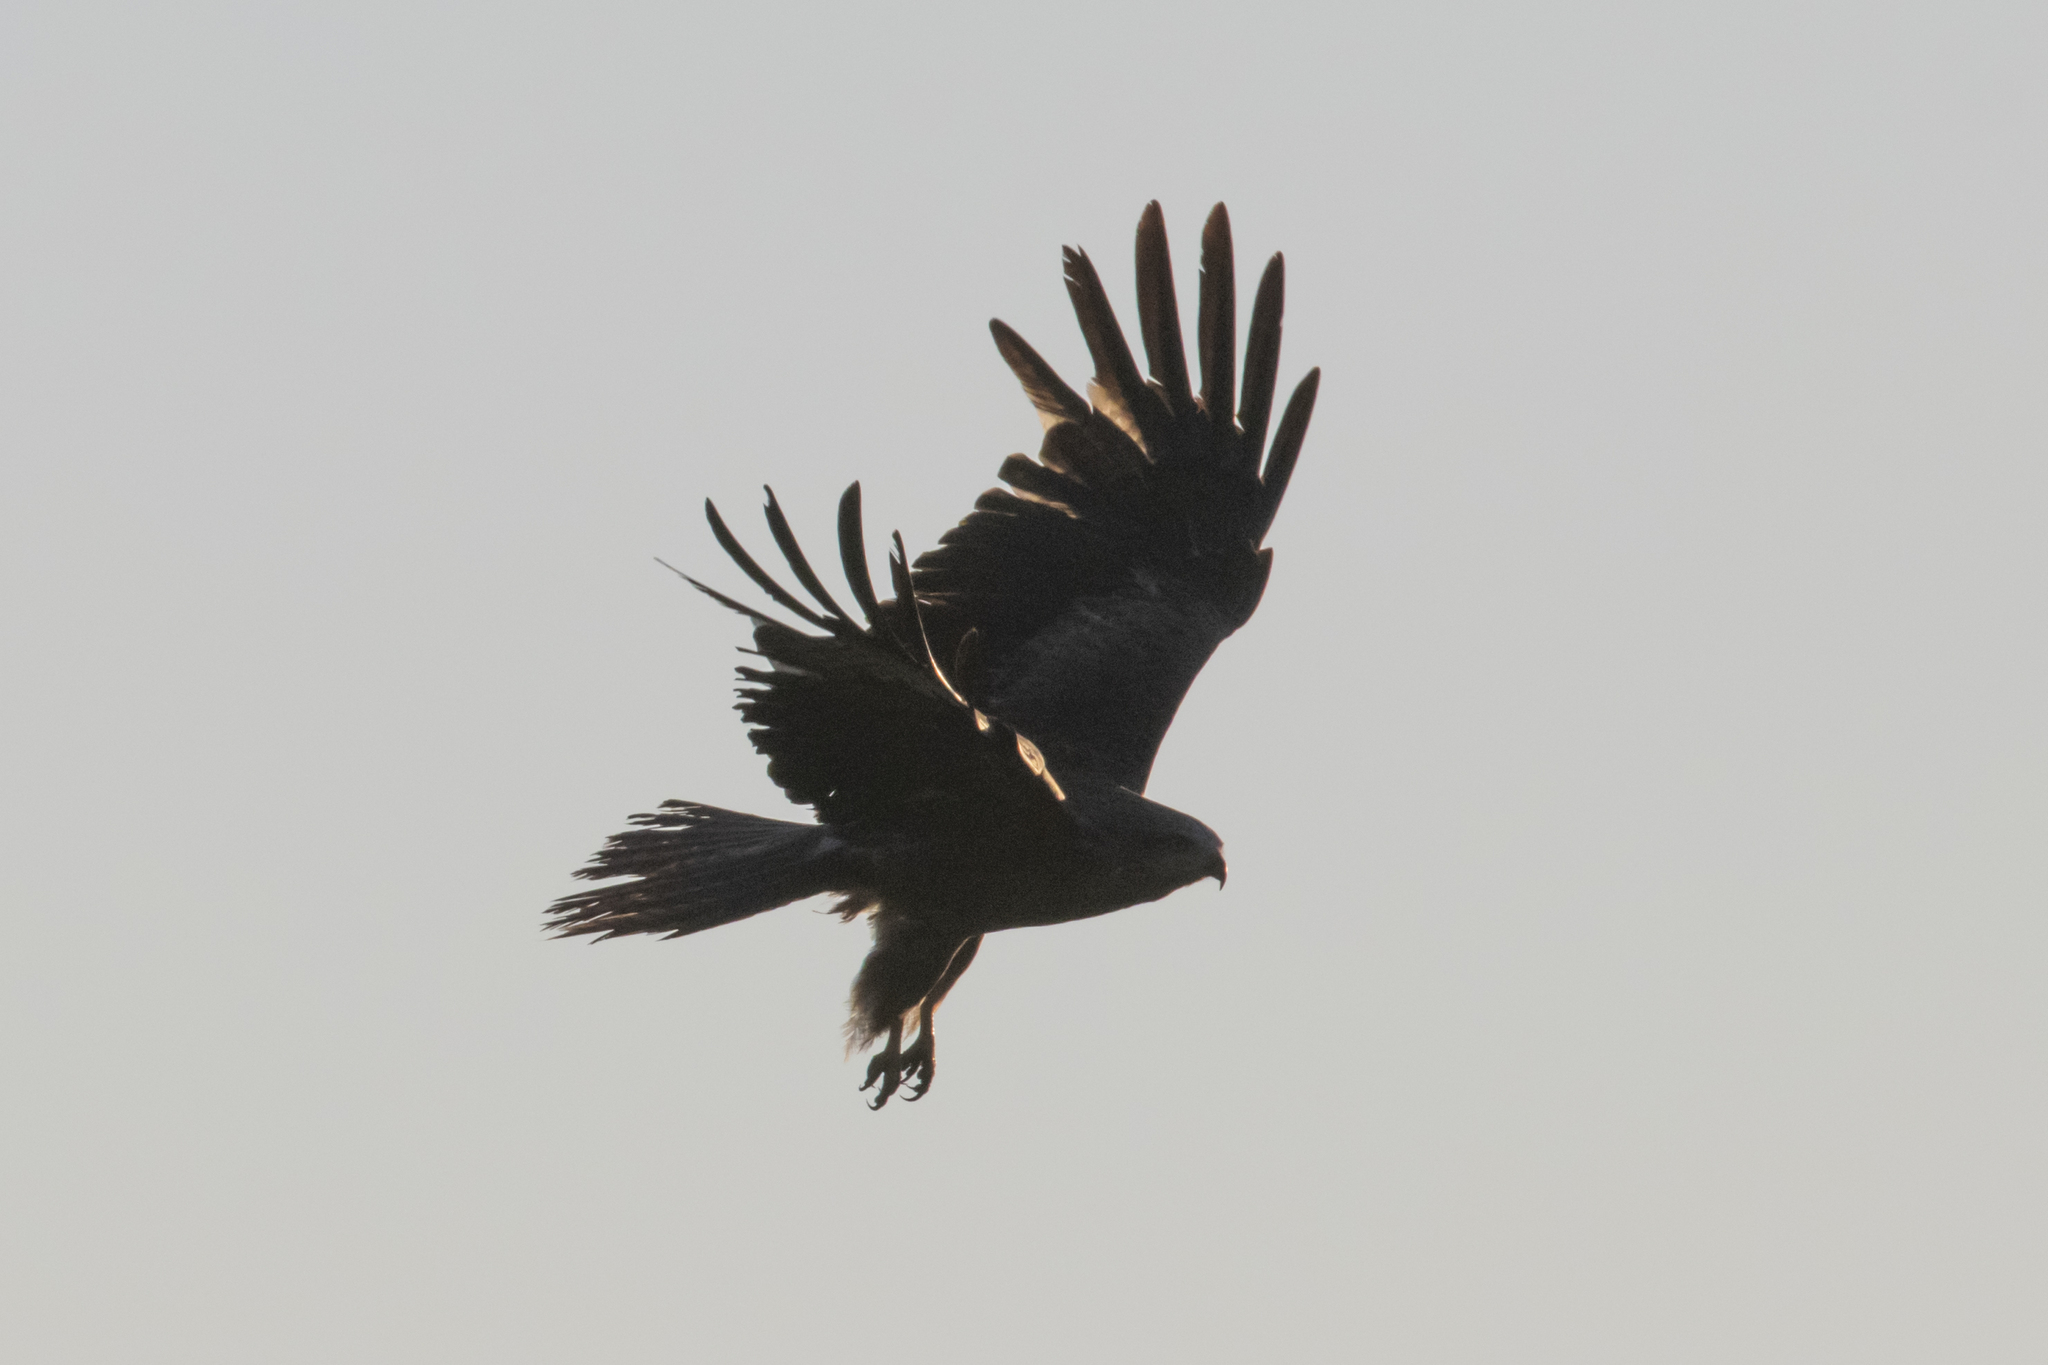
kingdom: Animalia
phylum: Chordata
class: Aves
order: Accipitriformes
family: Accipitridae
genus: Milvus
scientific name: Milvus migrans
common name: Black kite
